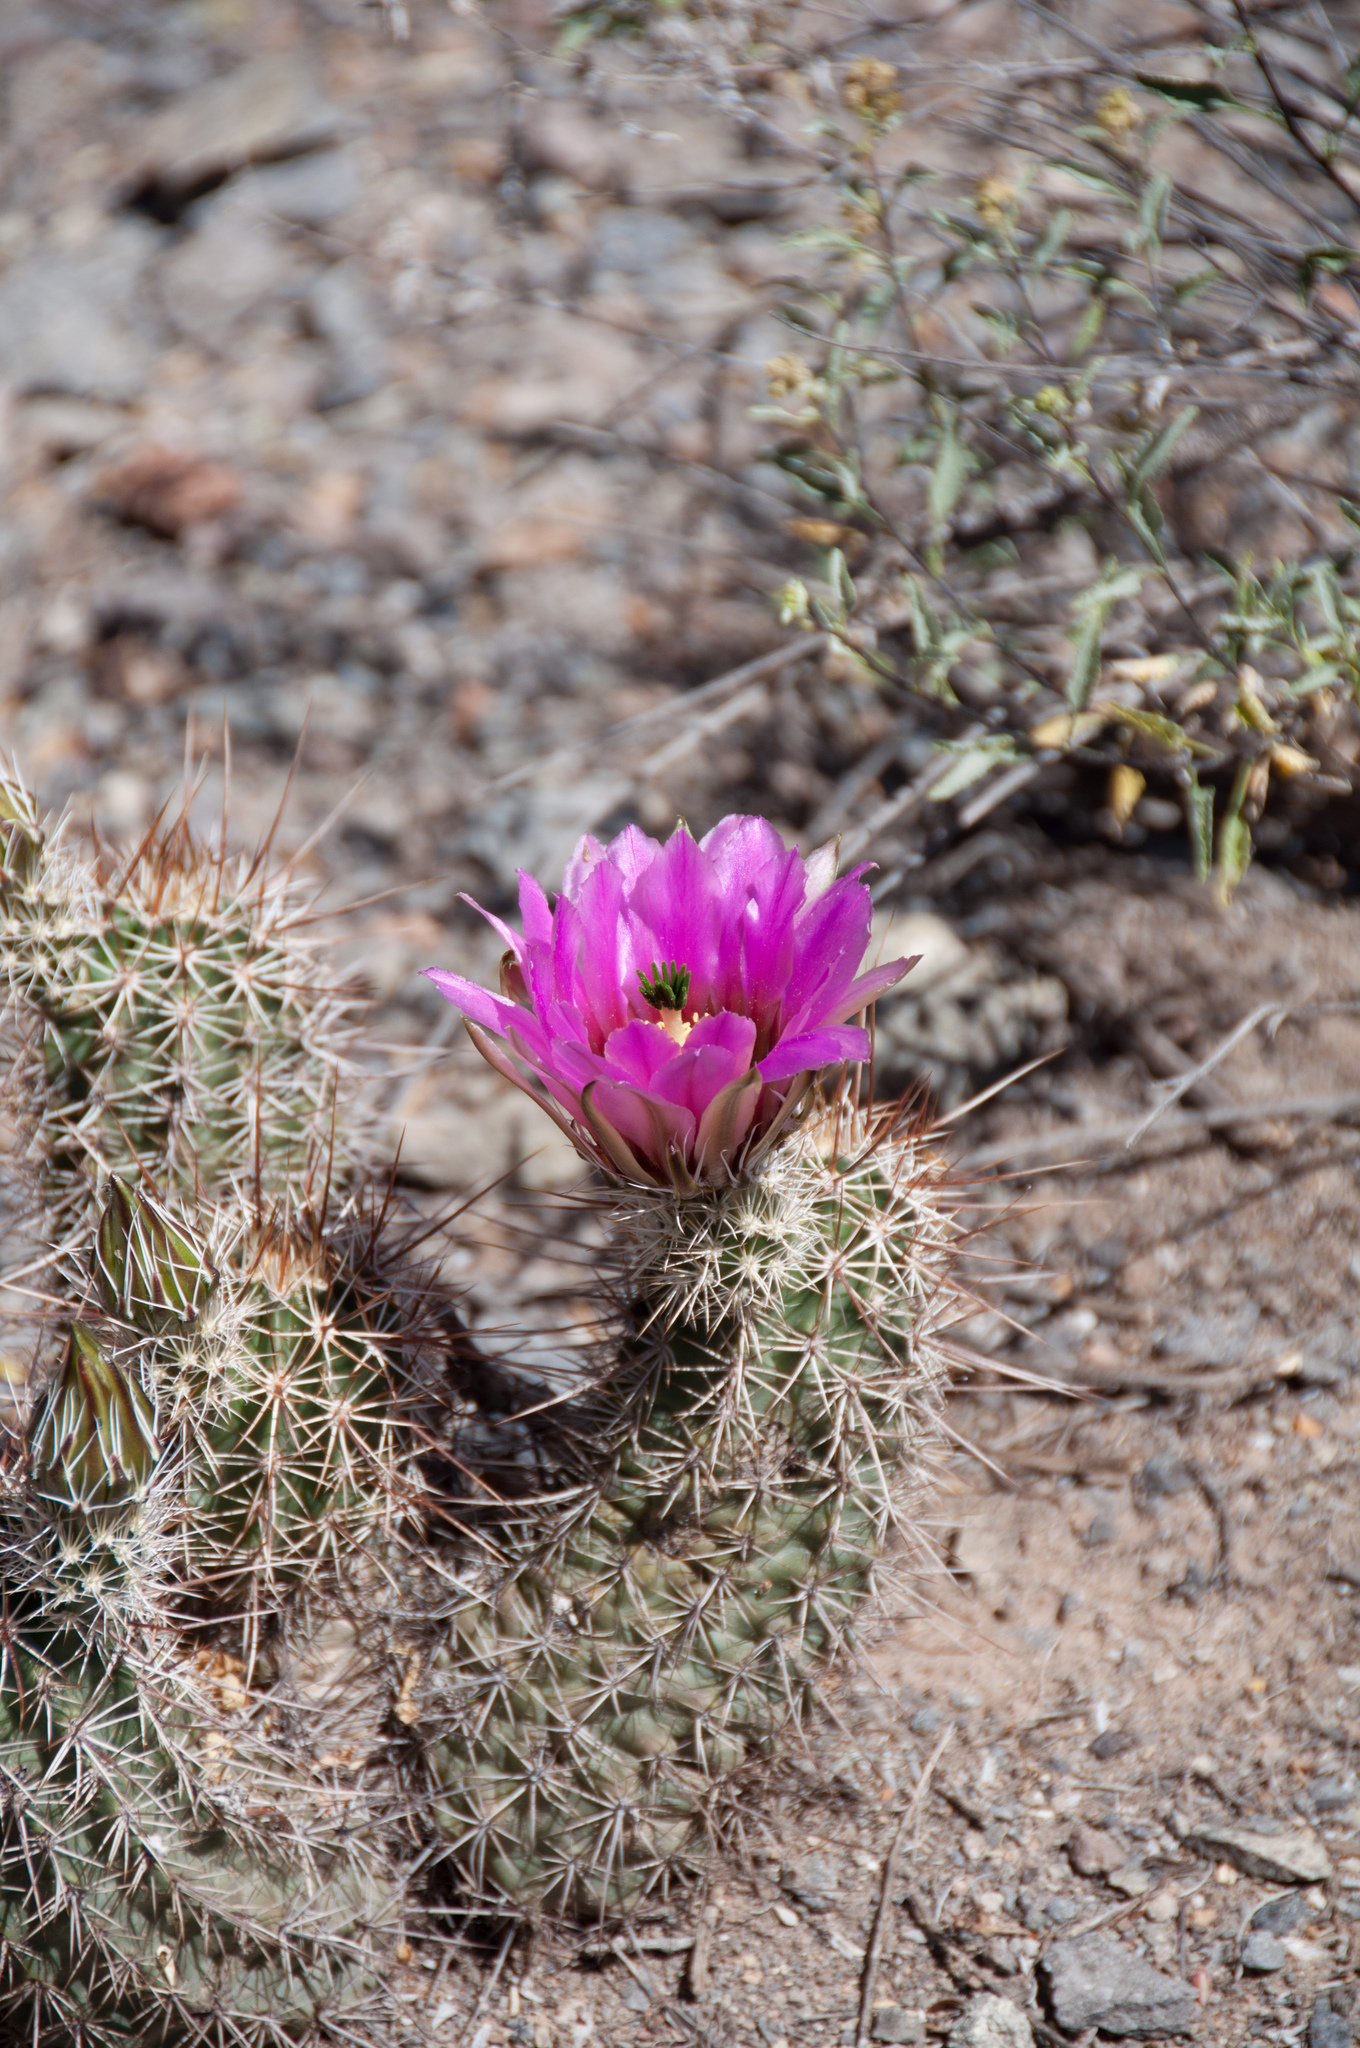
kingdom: Plantae
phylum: Tracheophyta
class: Magnoliopsida
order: Caryophyllales
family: Cactaceae
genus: Echinocereus
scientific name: Echinocereus fasciculatus
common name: Bundle hedgehog
